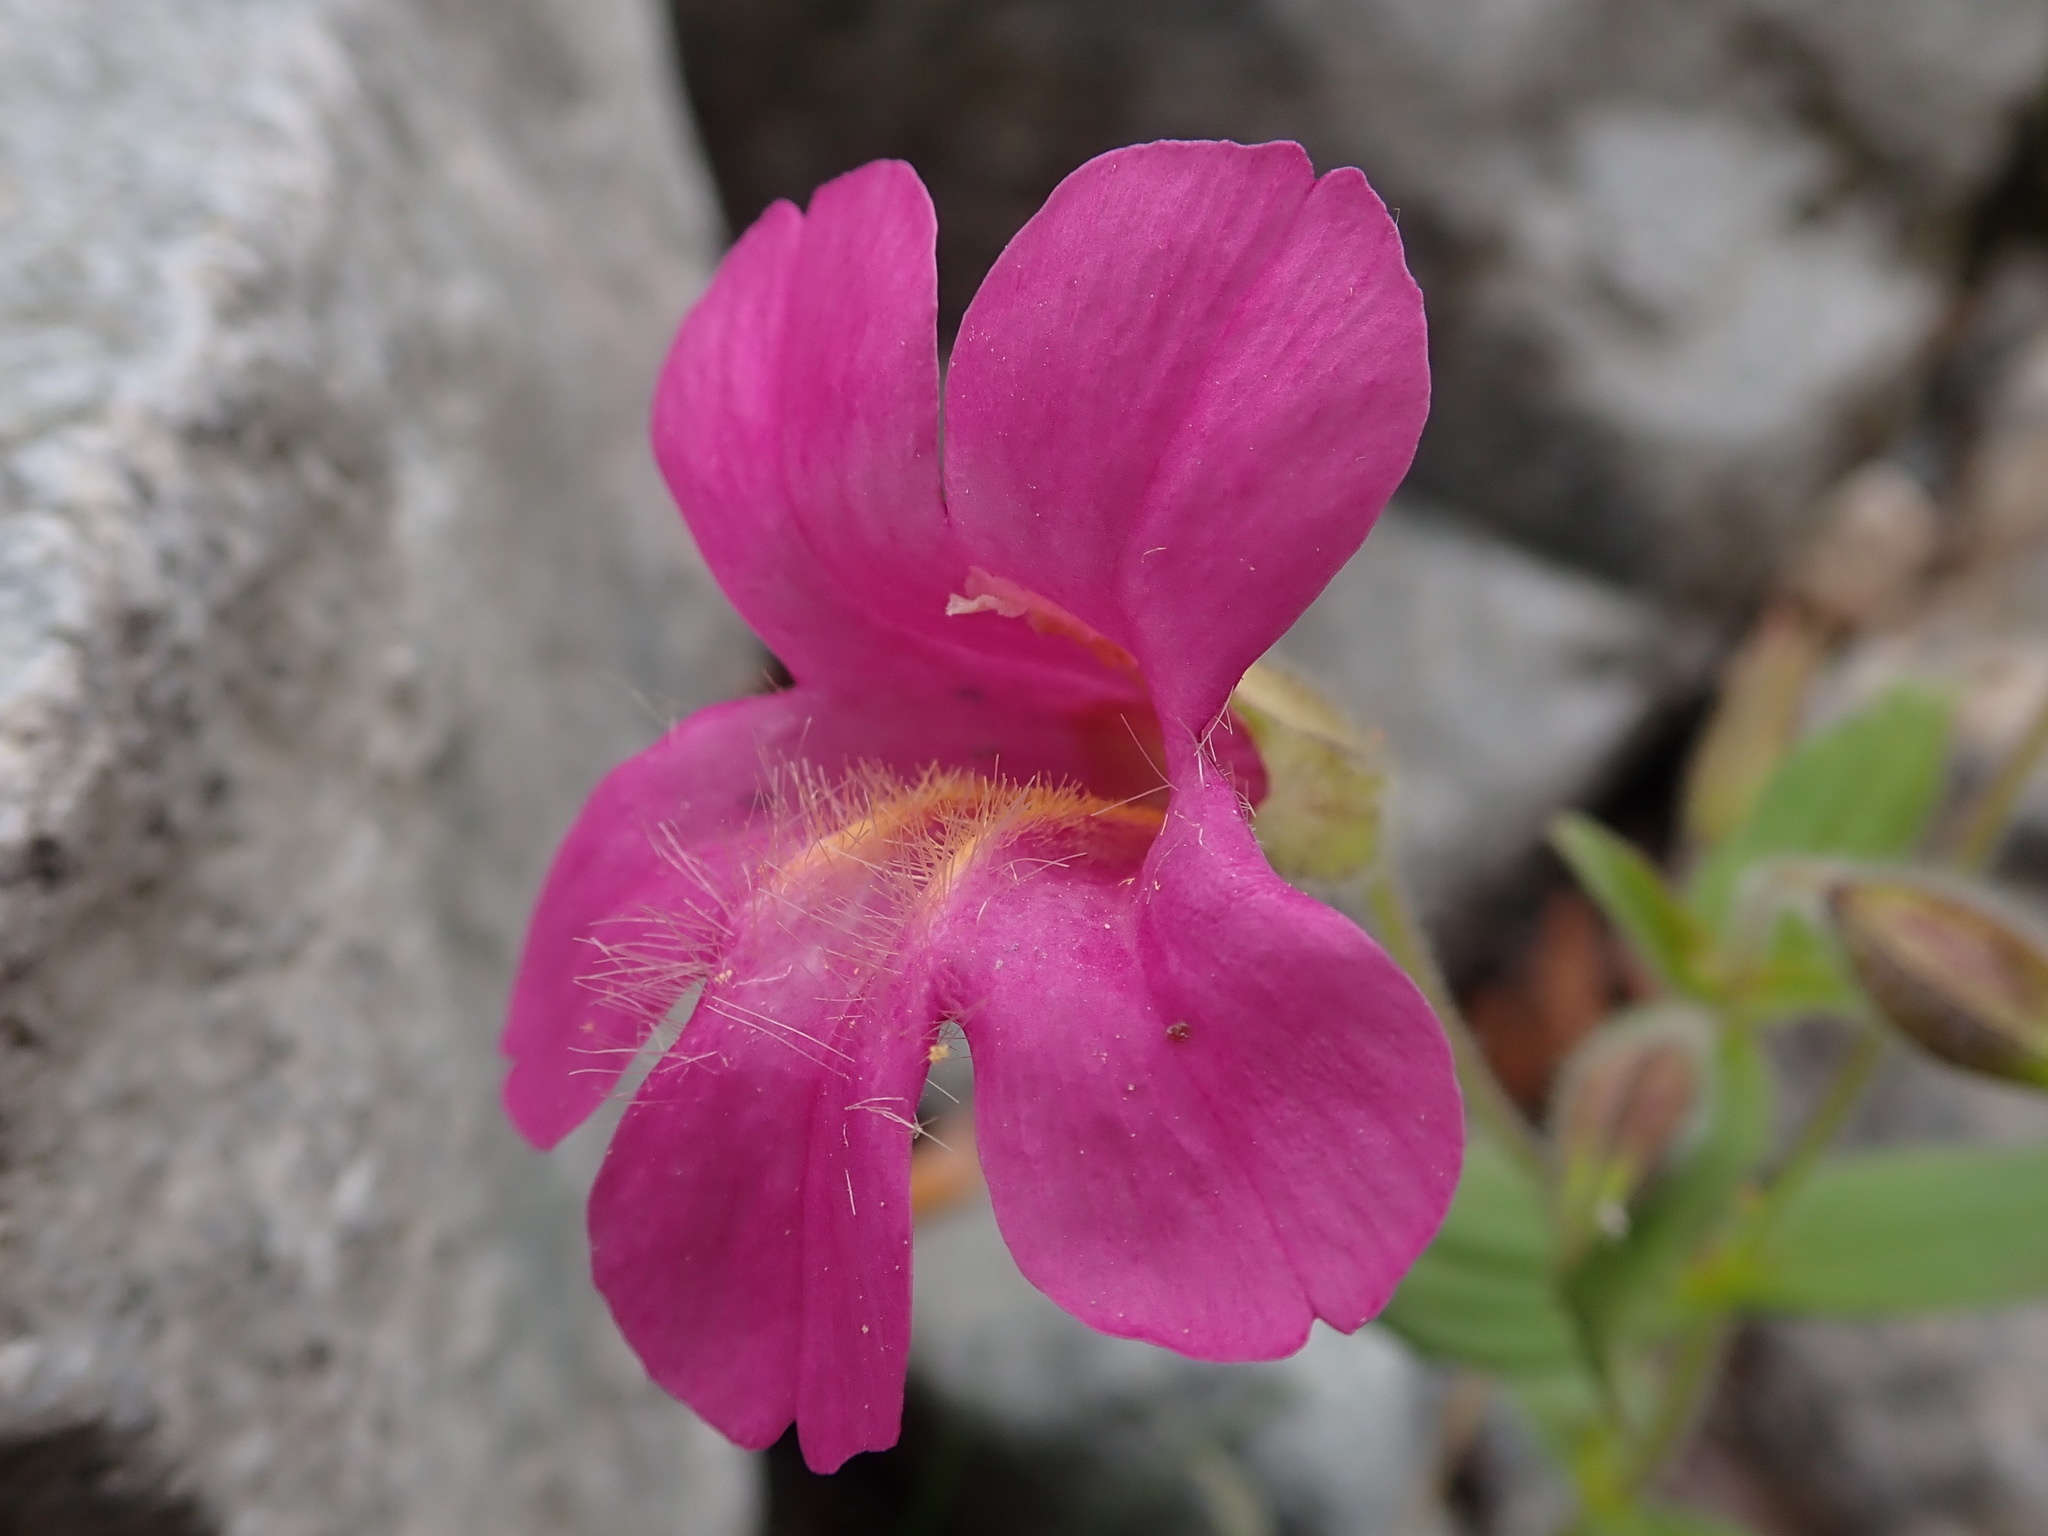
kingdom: Plantae
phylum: Tracheophyta
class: Magnoliopsida
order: Lamiales
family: Phrymaceae
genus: Erythranthe
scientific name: Erythranthe lewisii
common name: Lewis's monkey-flower
